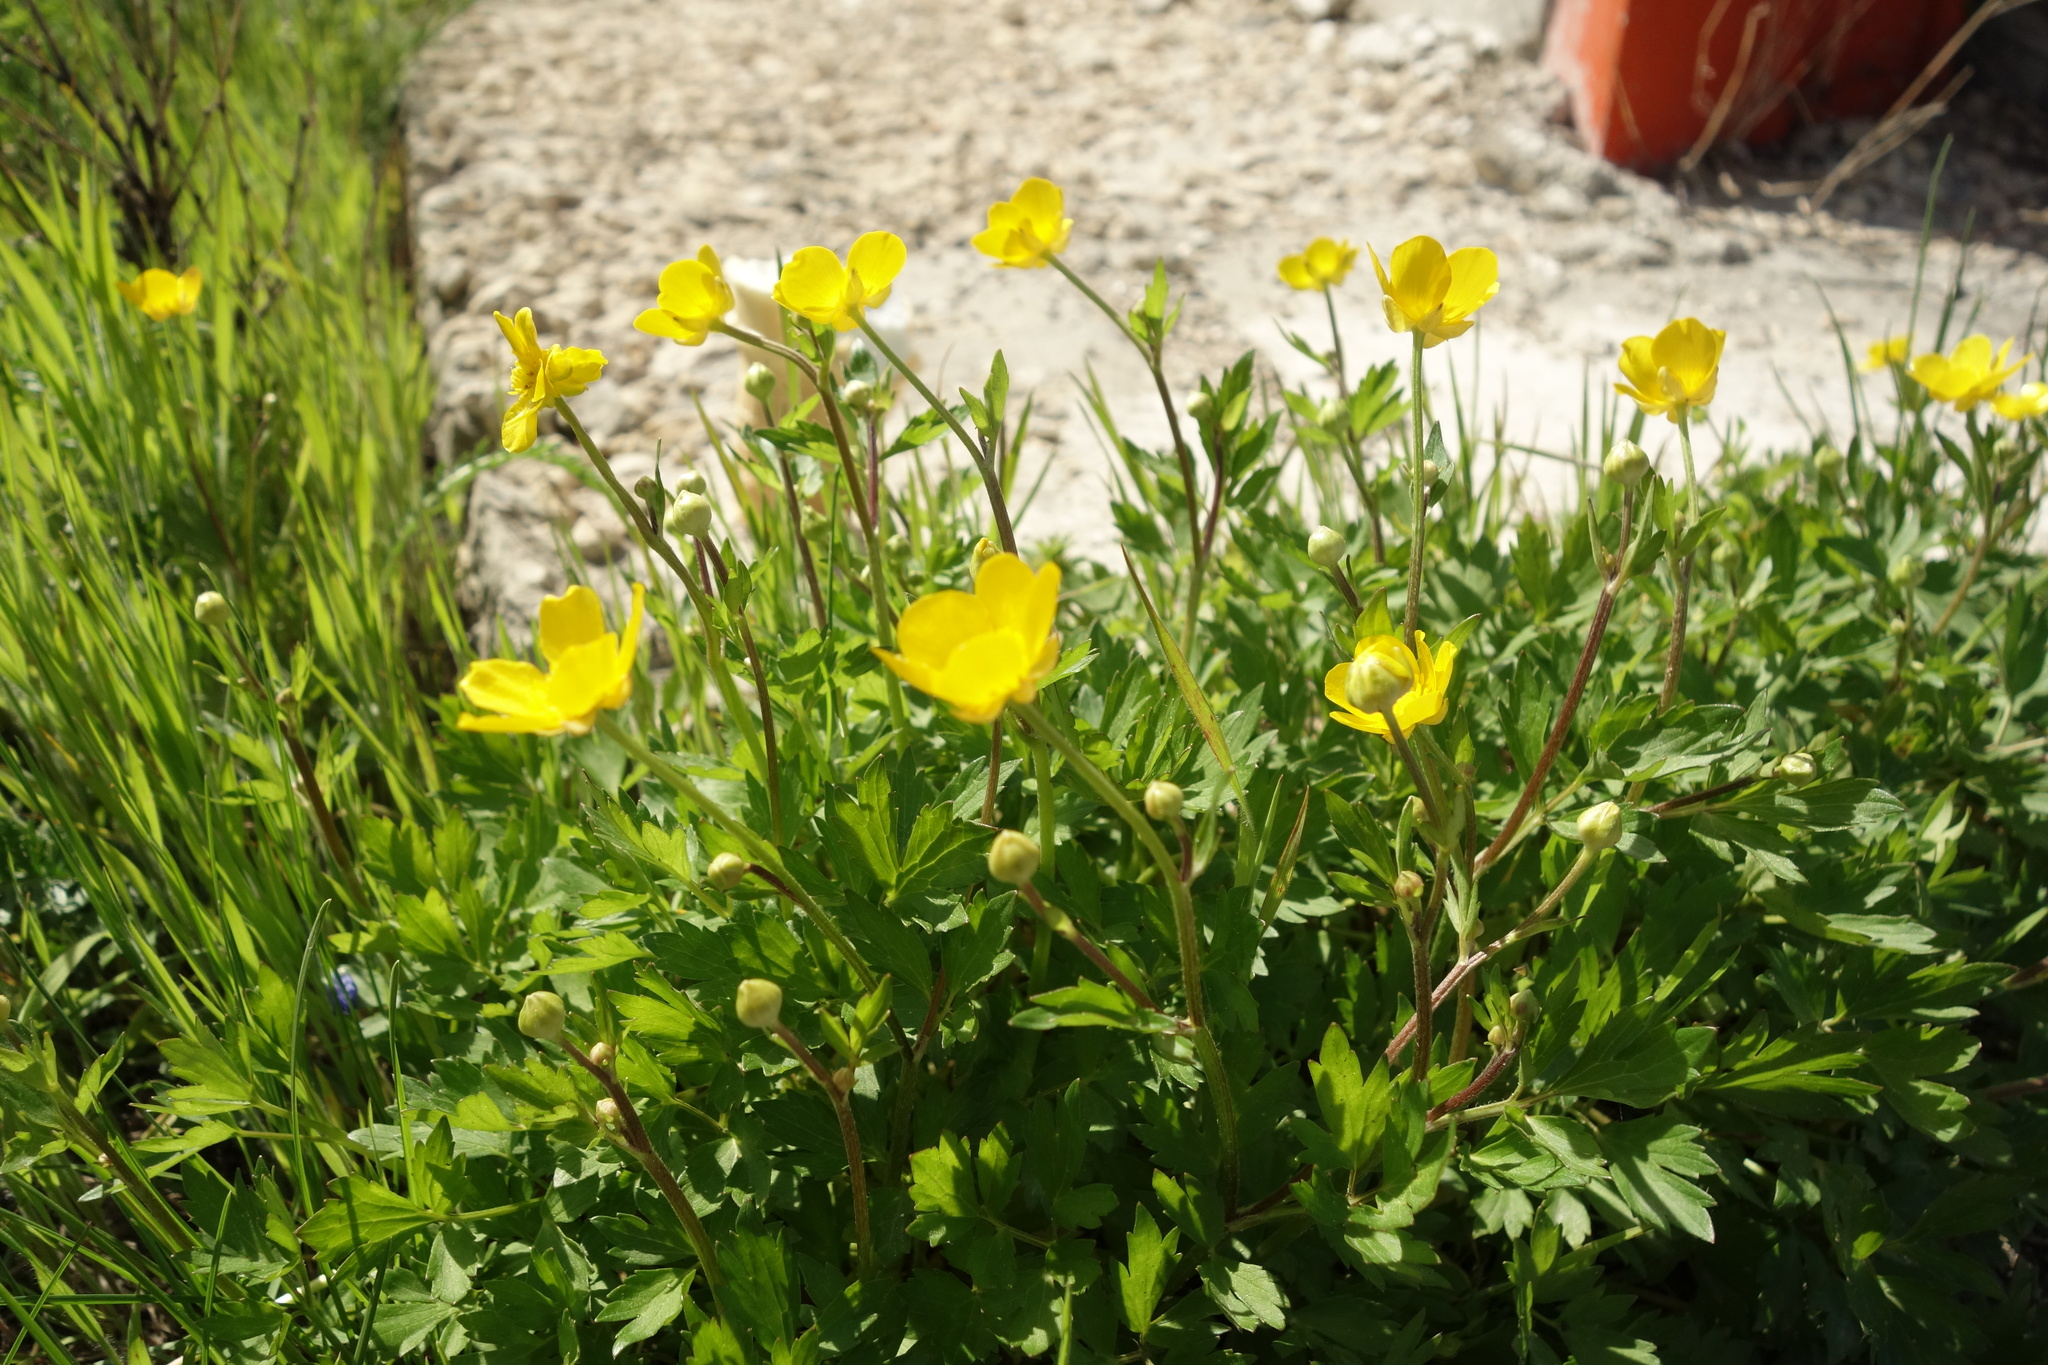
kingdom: Plantae
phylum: Tracheophyta
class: Magnoliopsida
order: Ranunculales
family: Ranunculaceae
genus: Ranunculus
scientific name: Ranunculus repens
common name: Creeping buttercup
